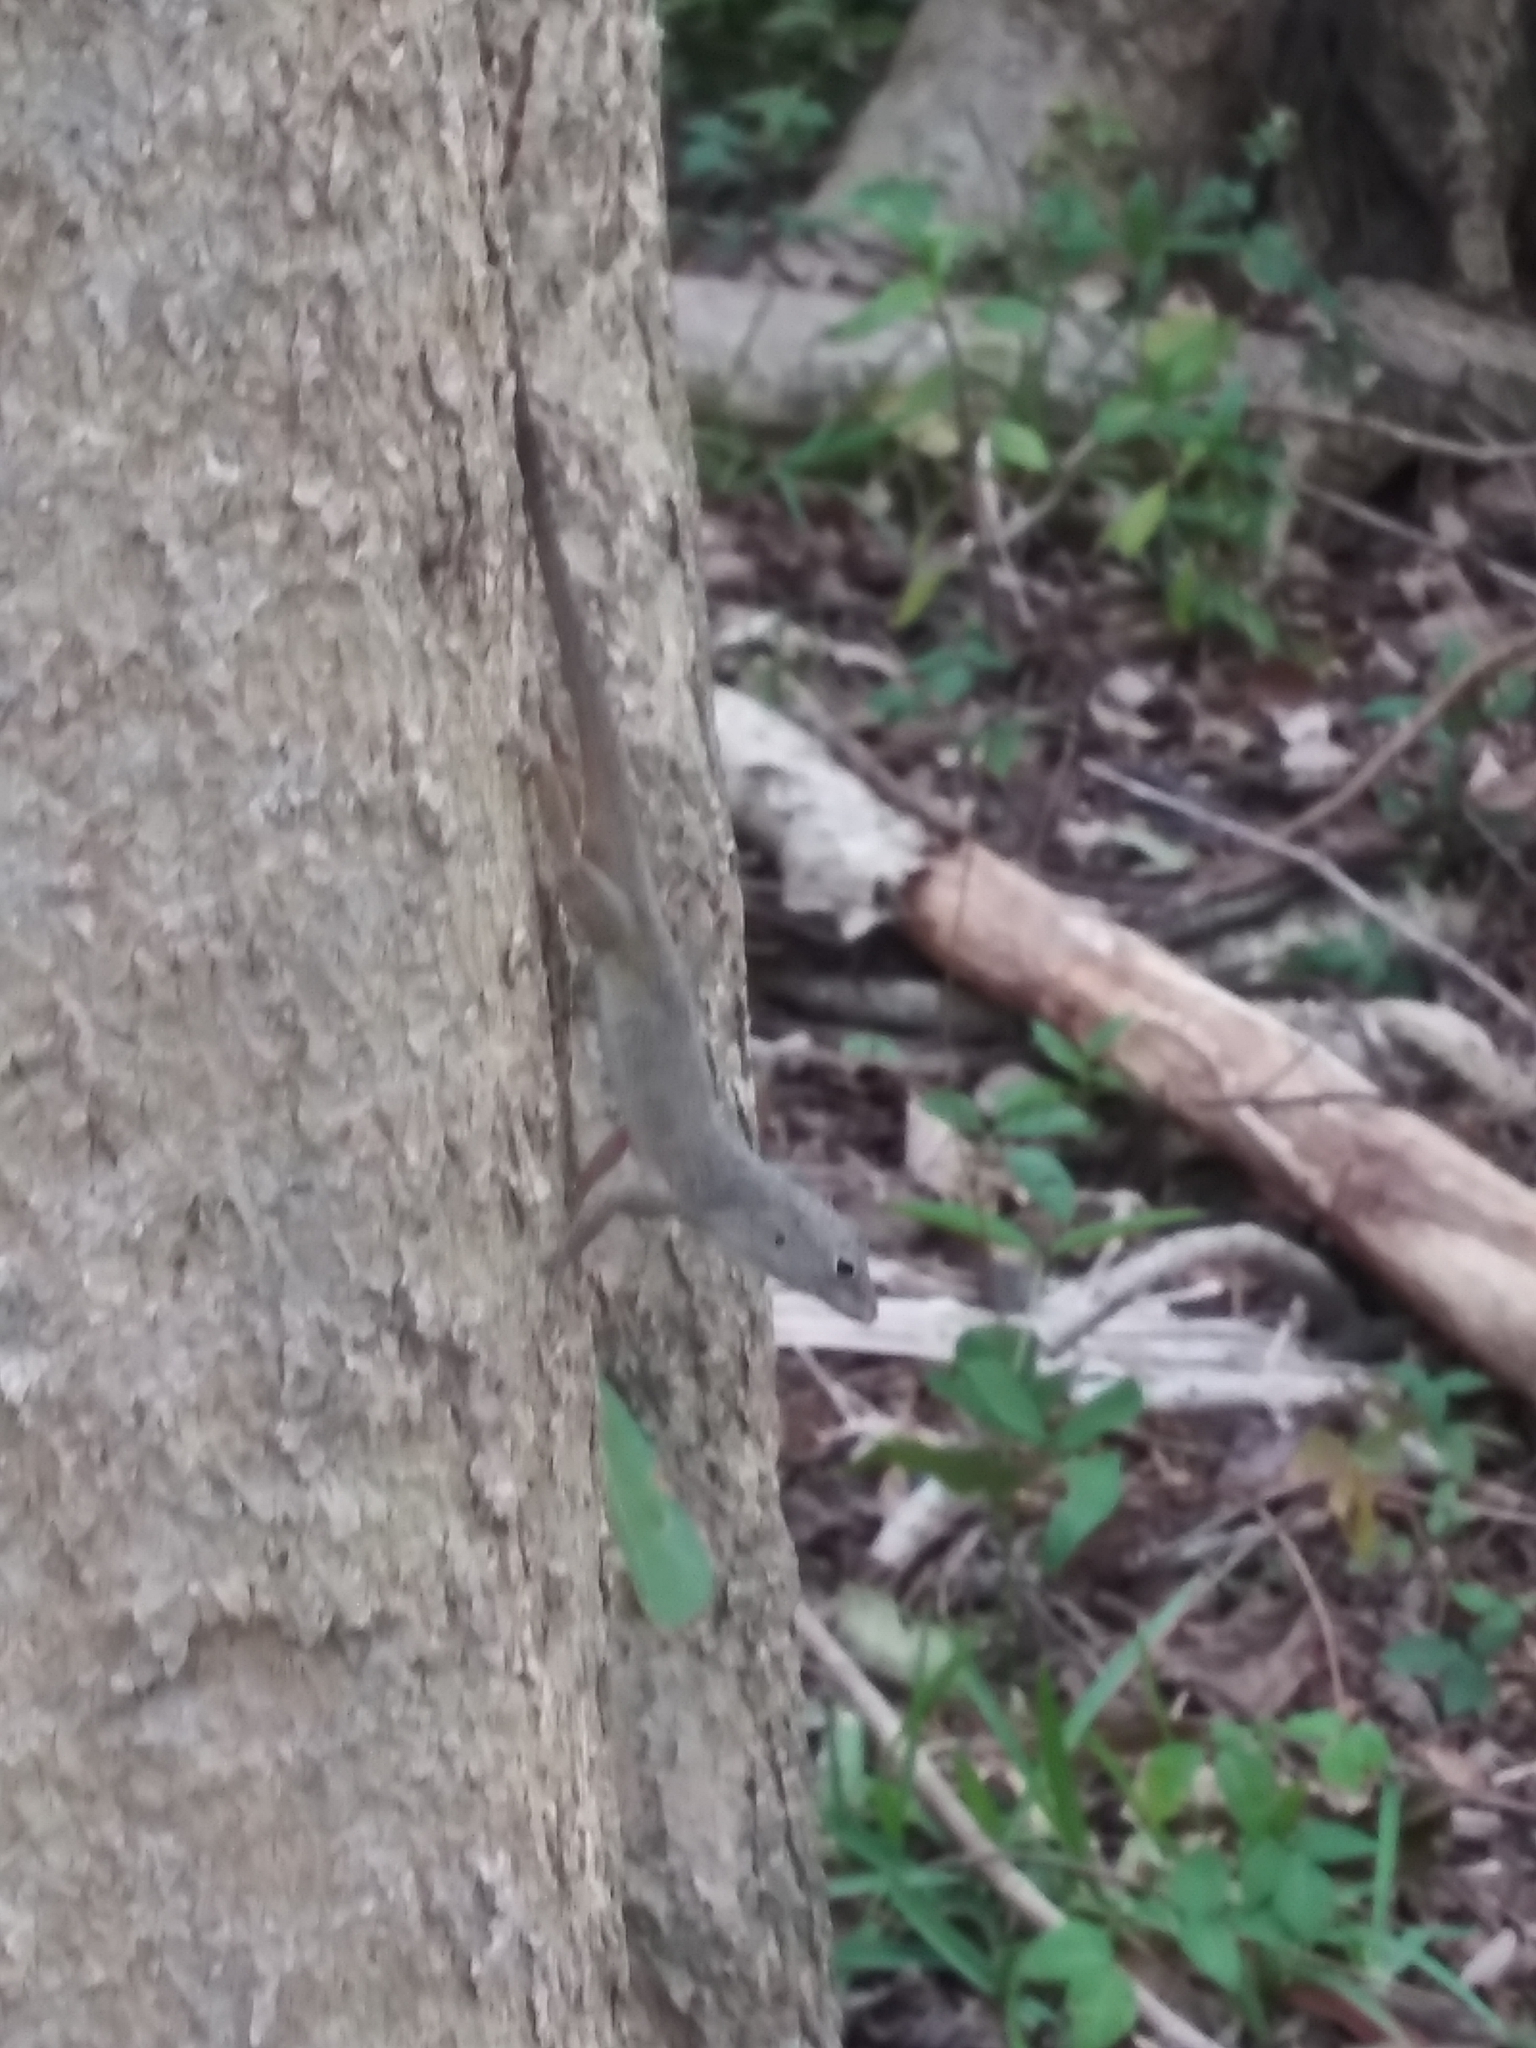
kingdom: Animalia
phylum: Chordata
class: Squamata
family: Dactyloidae
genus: Anolis
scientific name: Anolis distichus
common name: Bark anole
